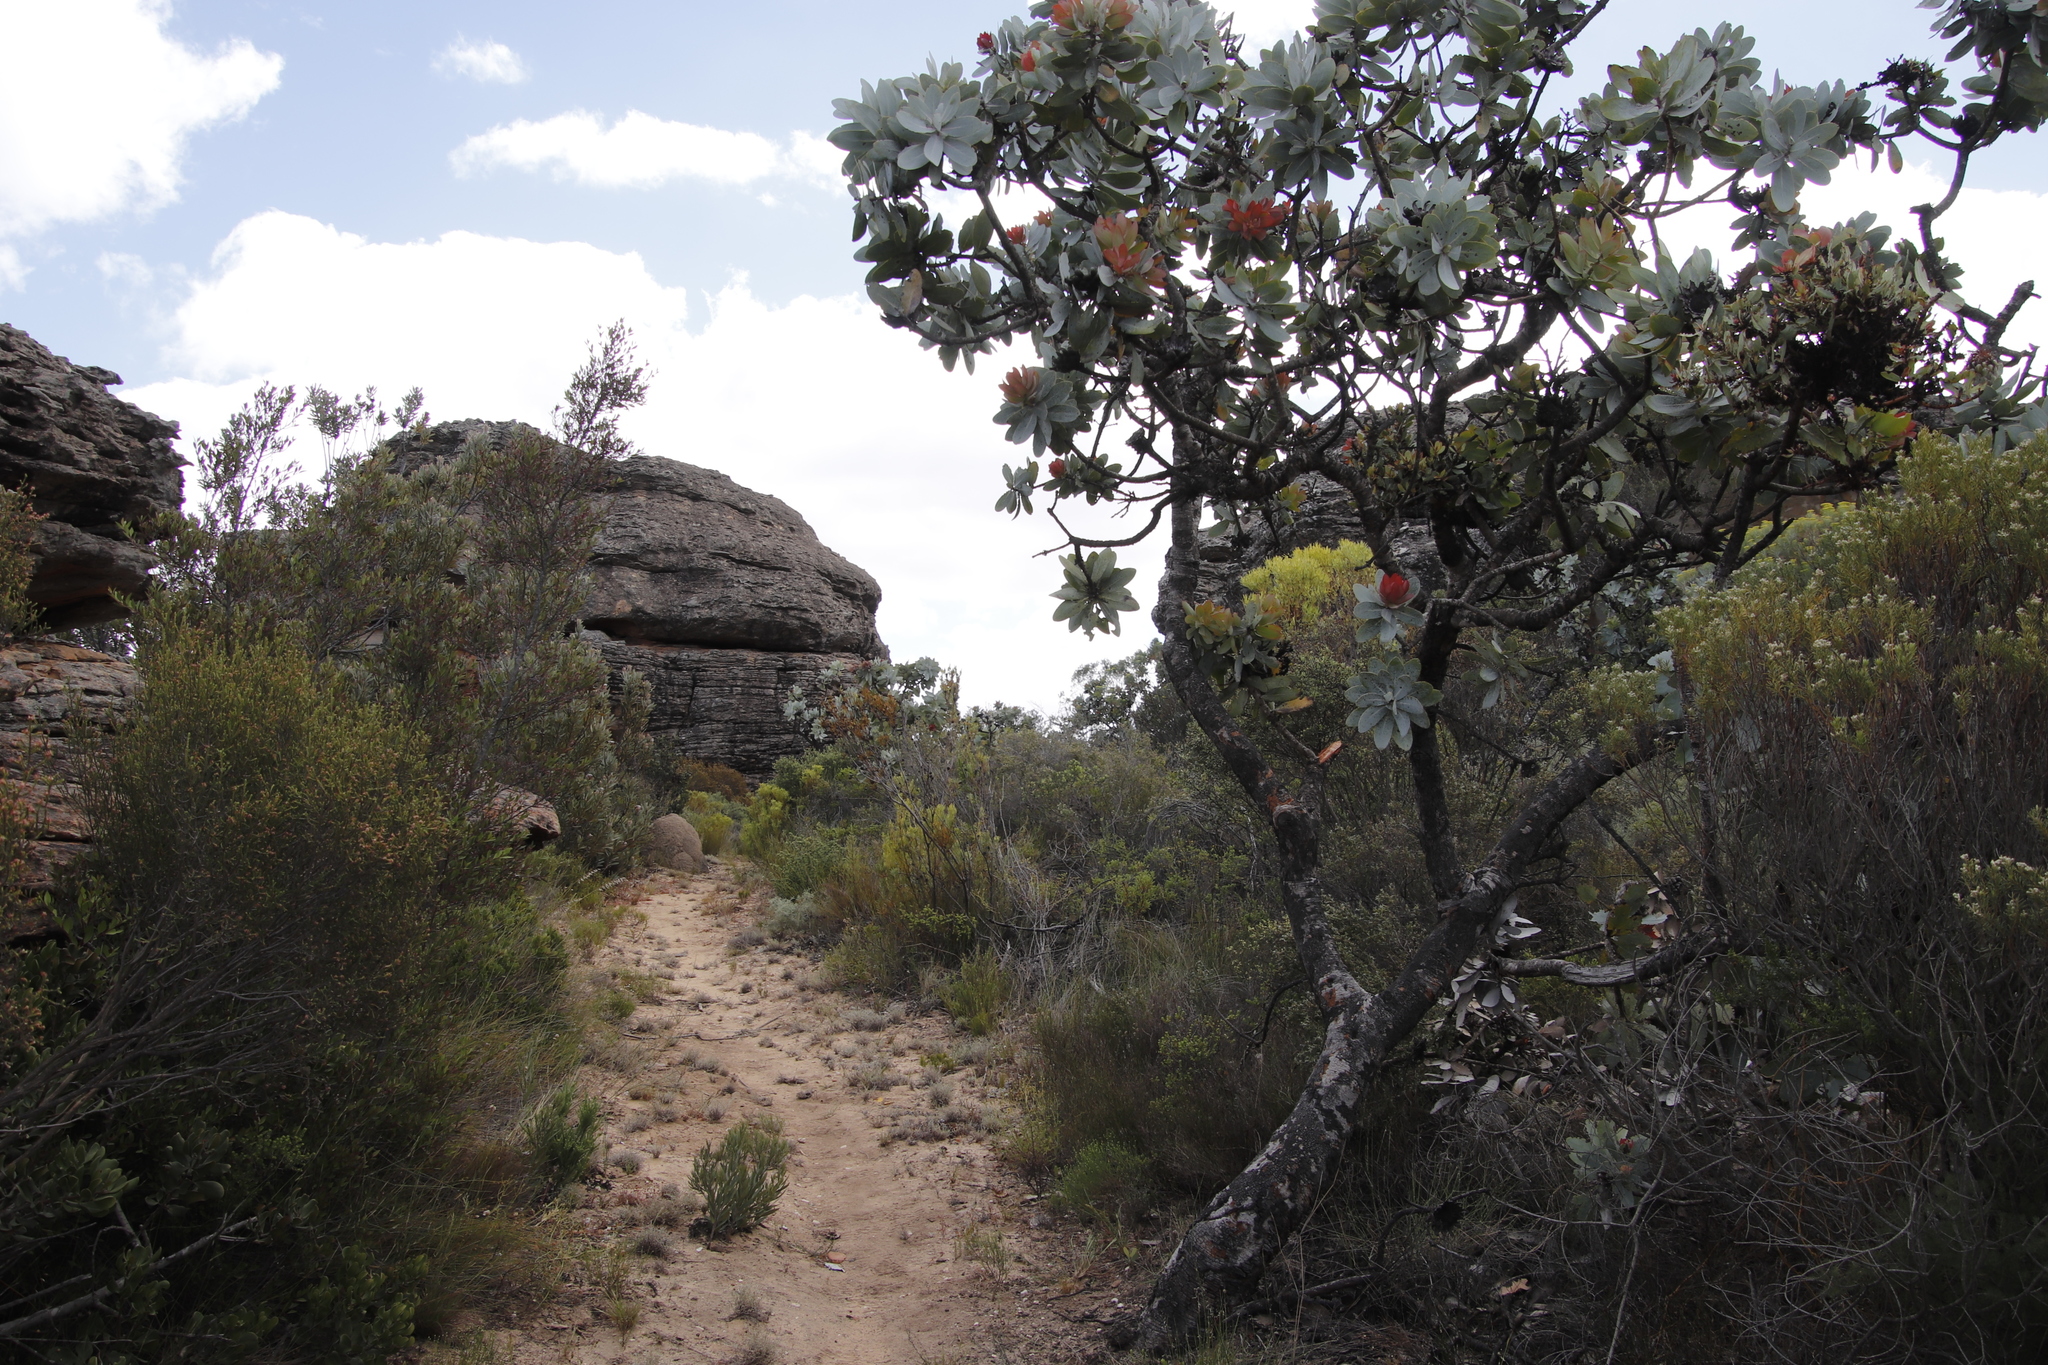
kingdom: Plantae
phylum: Tracheophyta
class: Magnoliopsida
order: Proteales
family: Proteaceae
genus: Protea
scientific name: Protea nitida
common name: Tree protea
